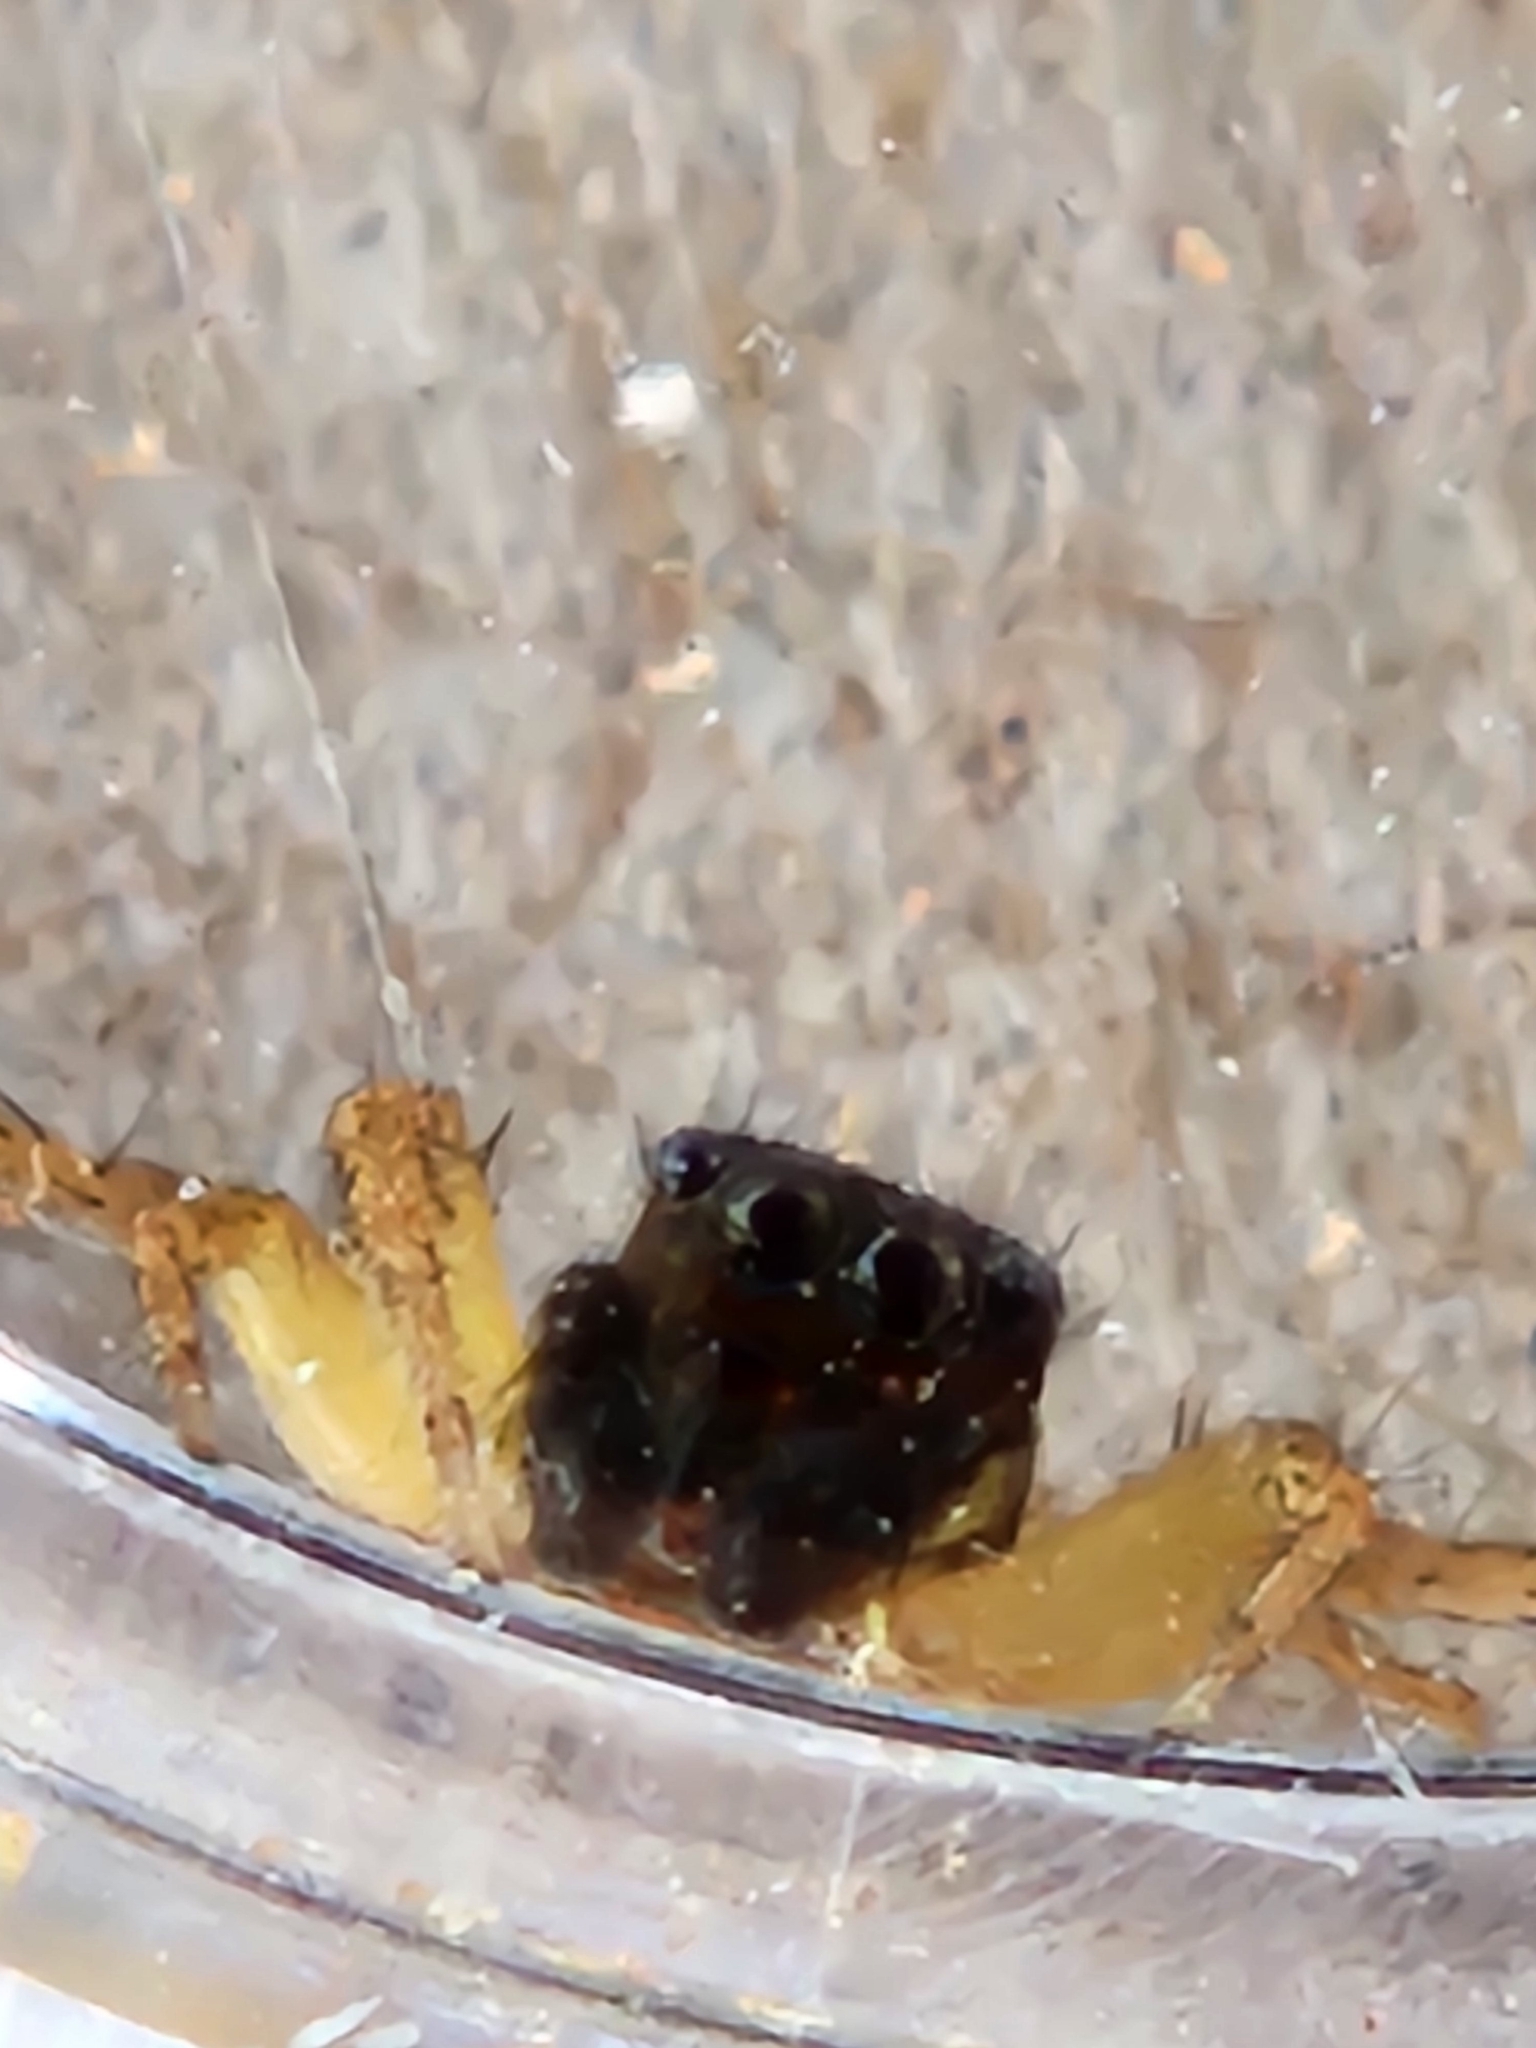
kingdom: Animalia
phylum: Arthropoda
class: Arachnida
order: Araneae
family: Salticidae
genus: Paramaevia
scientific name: Paramaevia poultoni
